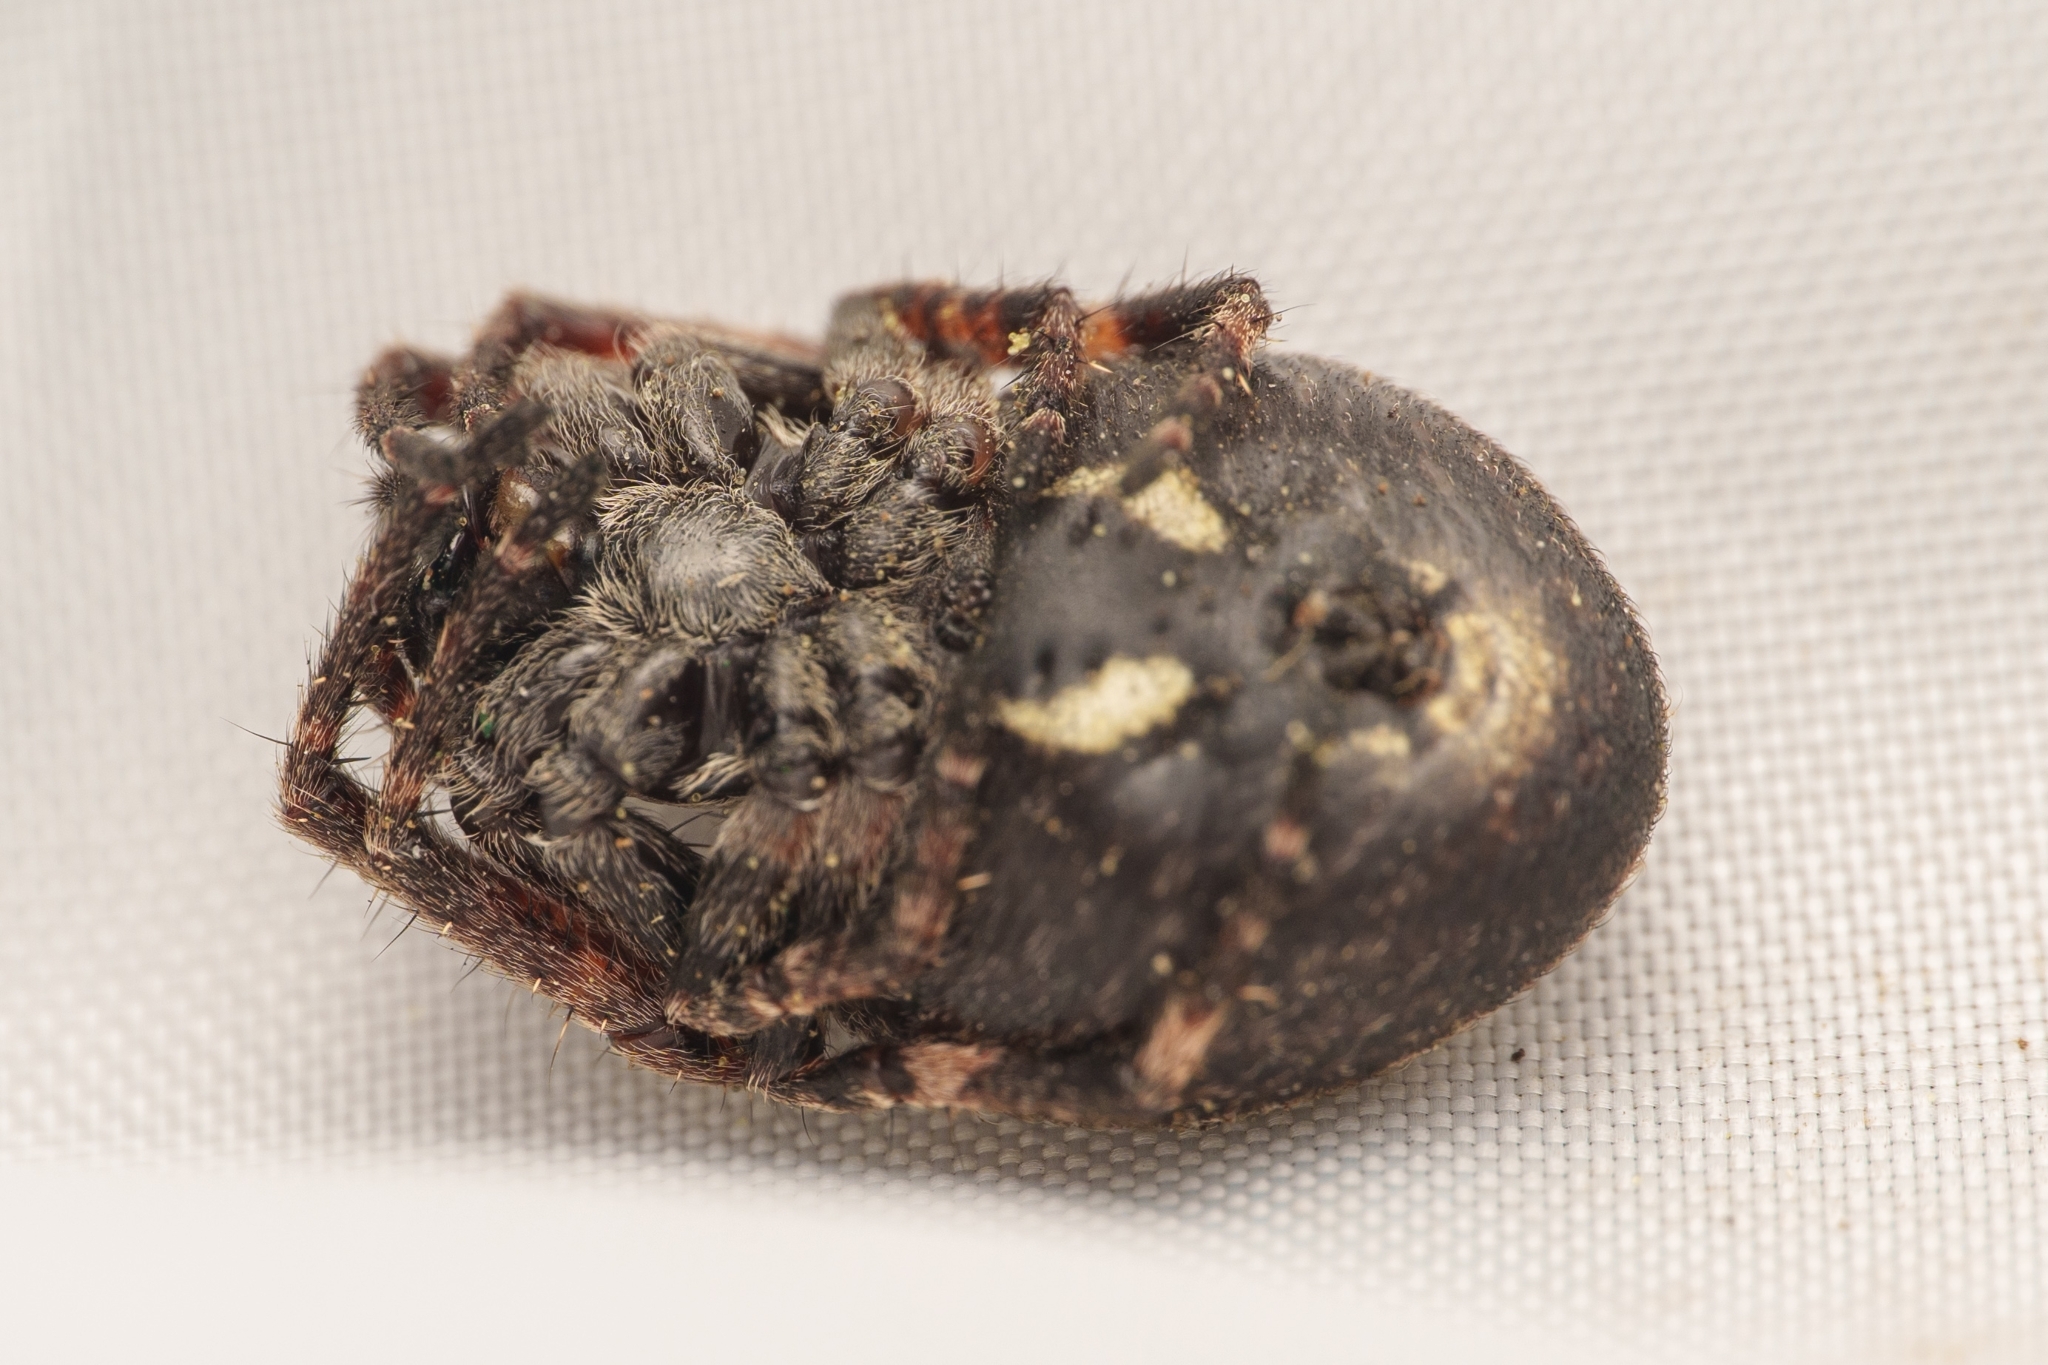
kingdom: Animalia
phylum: Arthropoda
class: Arachnida
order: Araneae
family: Araneidae
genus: Nuctenea
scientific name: Nuctenea umbratica
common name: Toad spider
